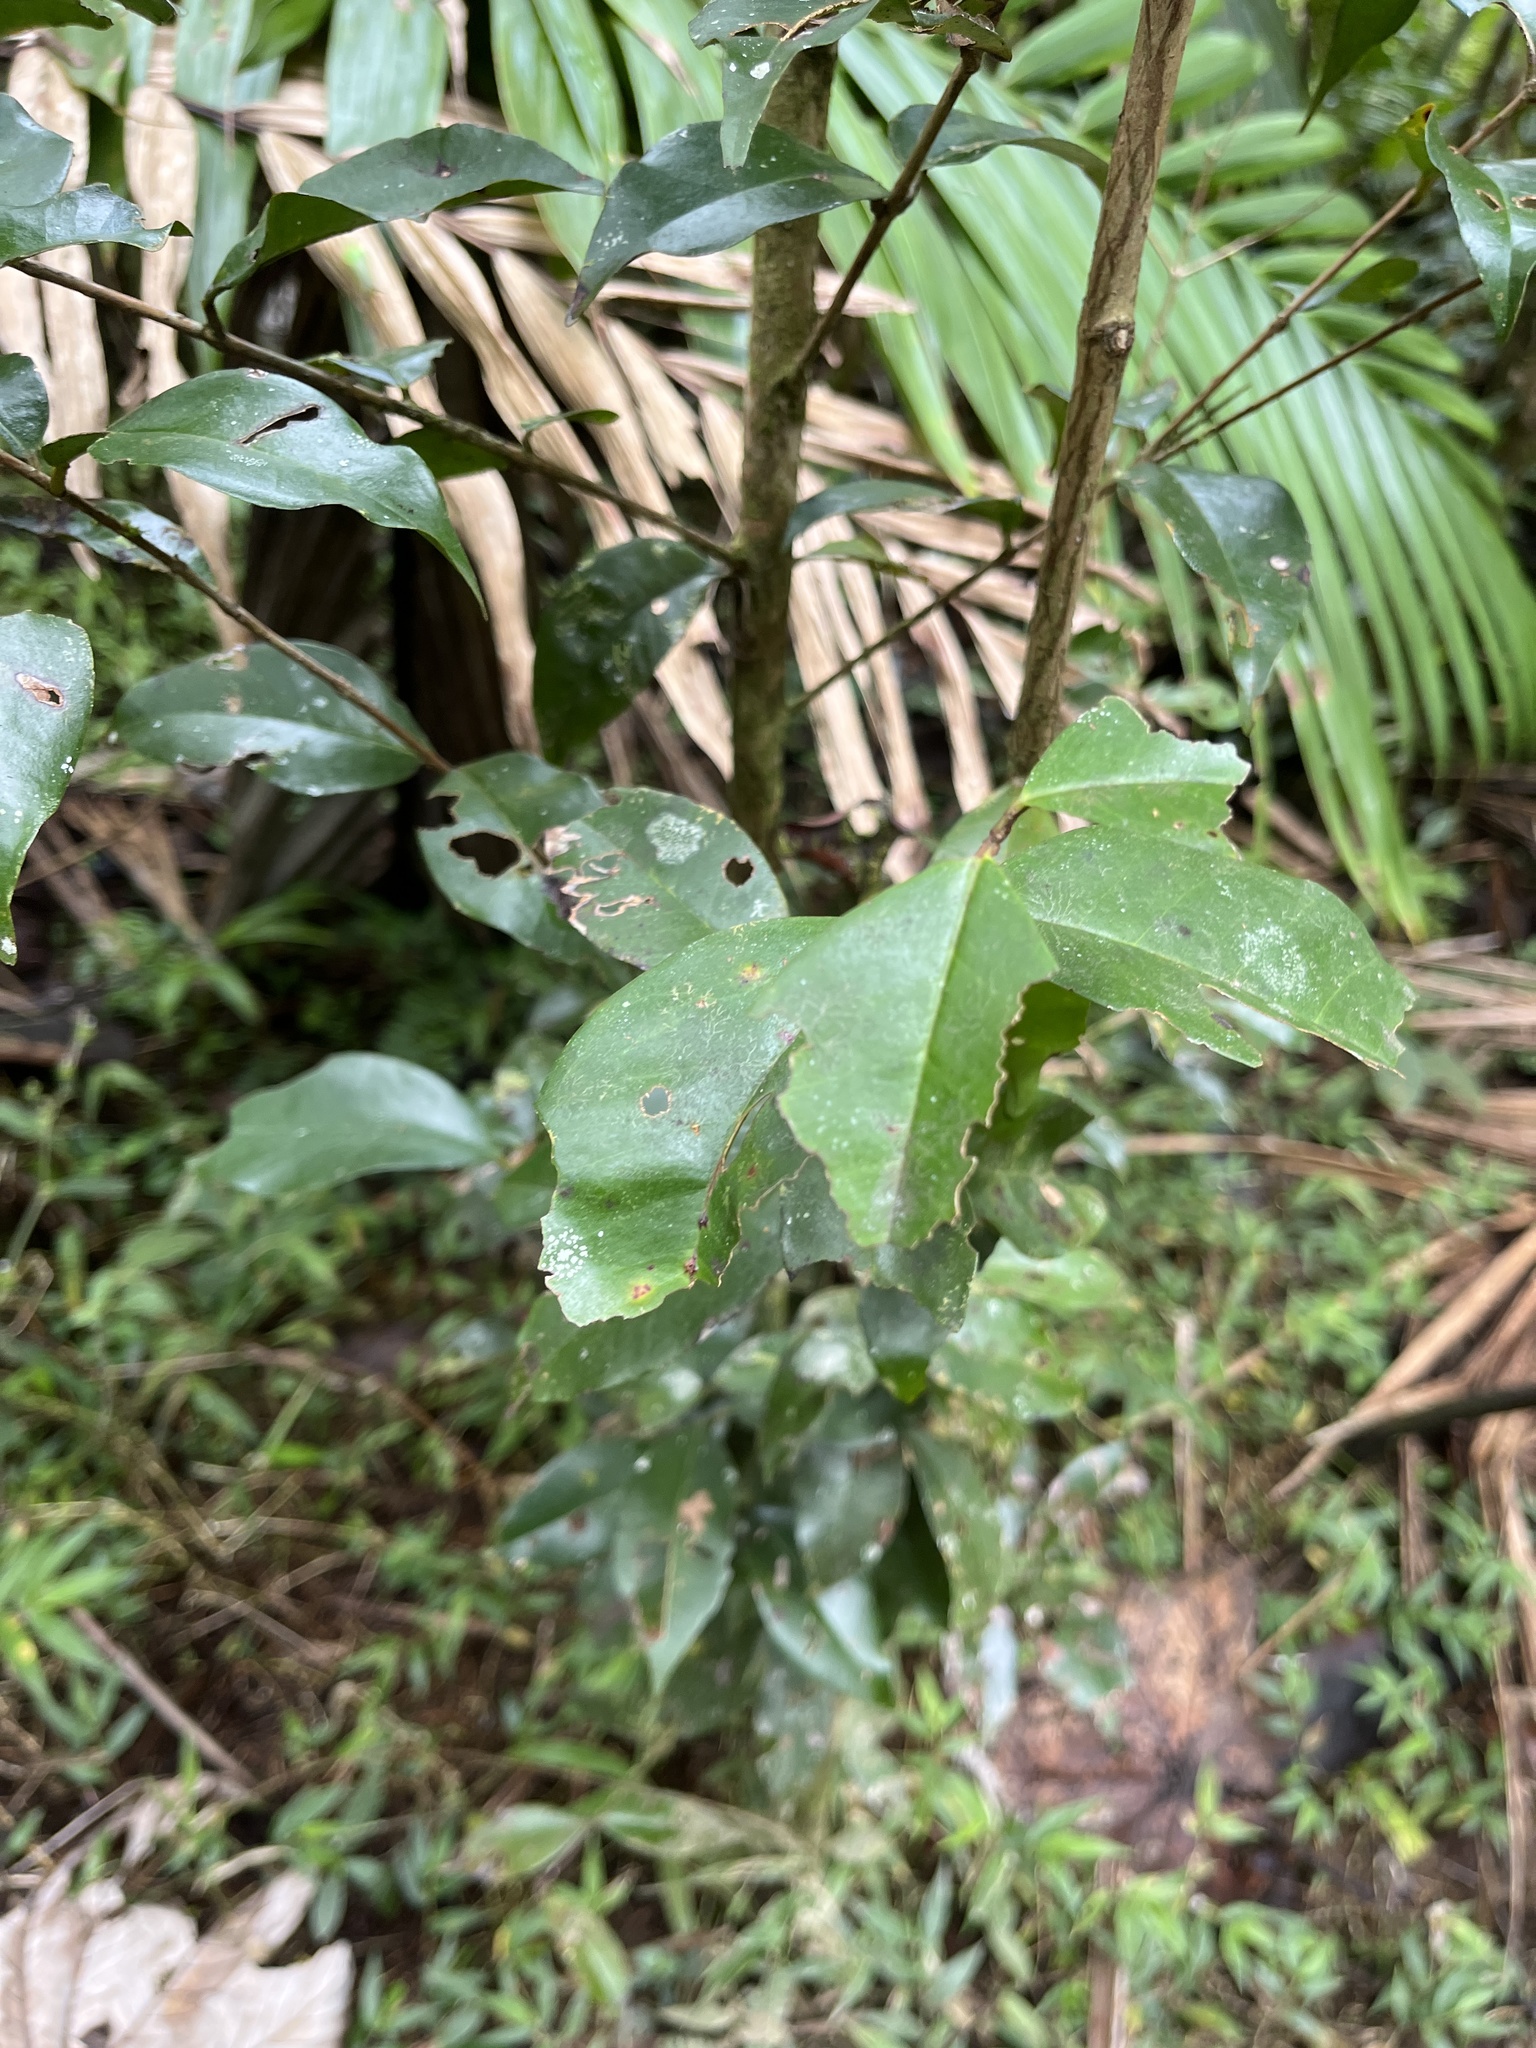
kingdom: Plantae
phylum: Tracheophyta
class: Magnoliopsida
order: Myrtales
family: Myrtaceae
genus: Eugenia
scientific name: Eugenia biflora
